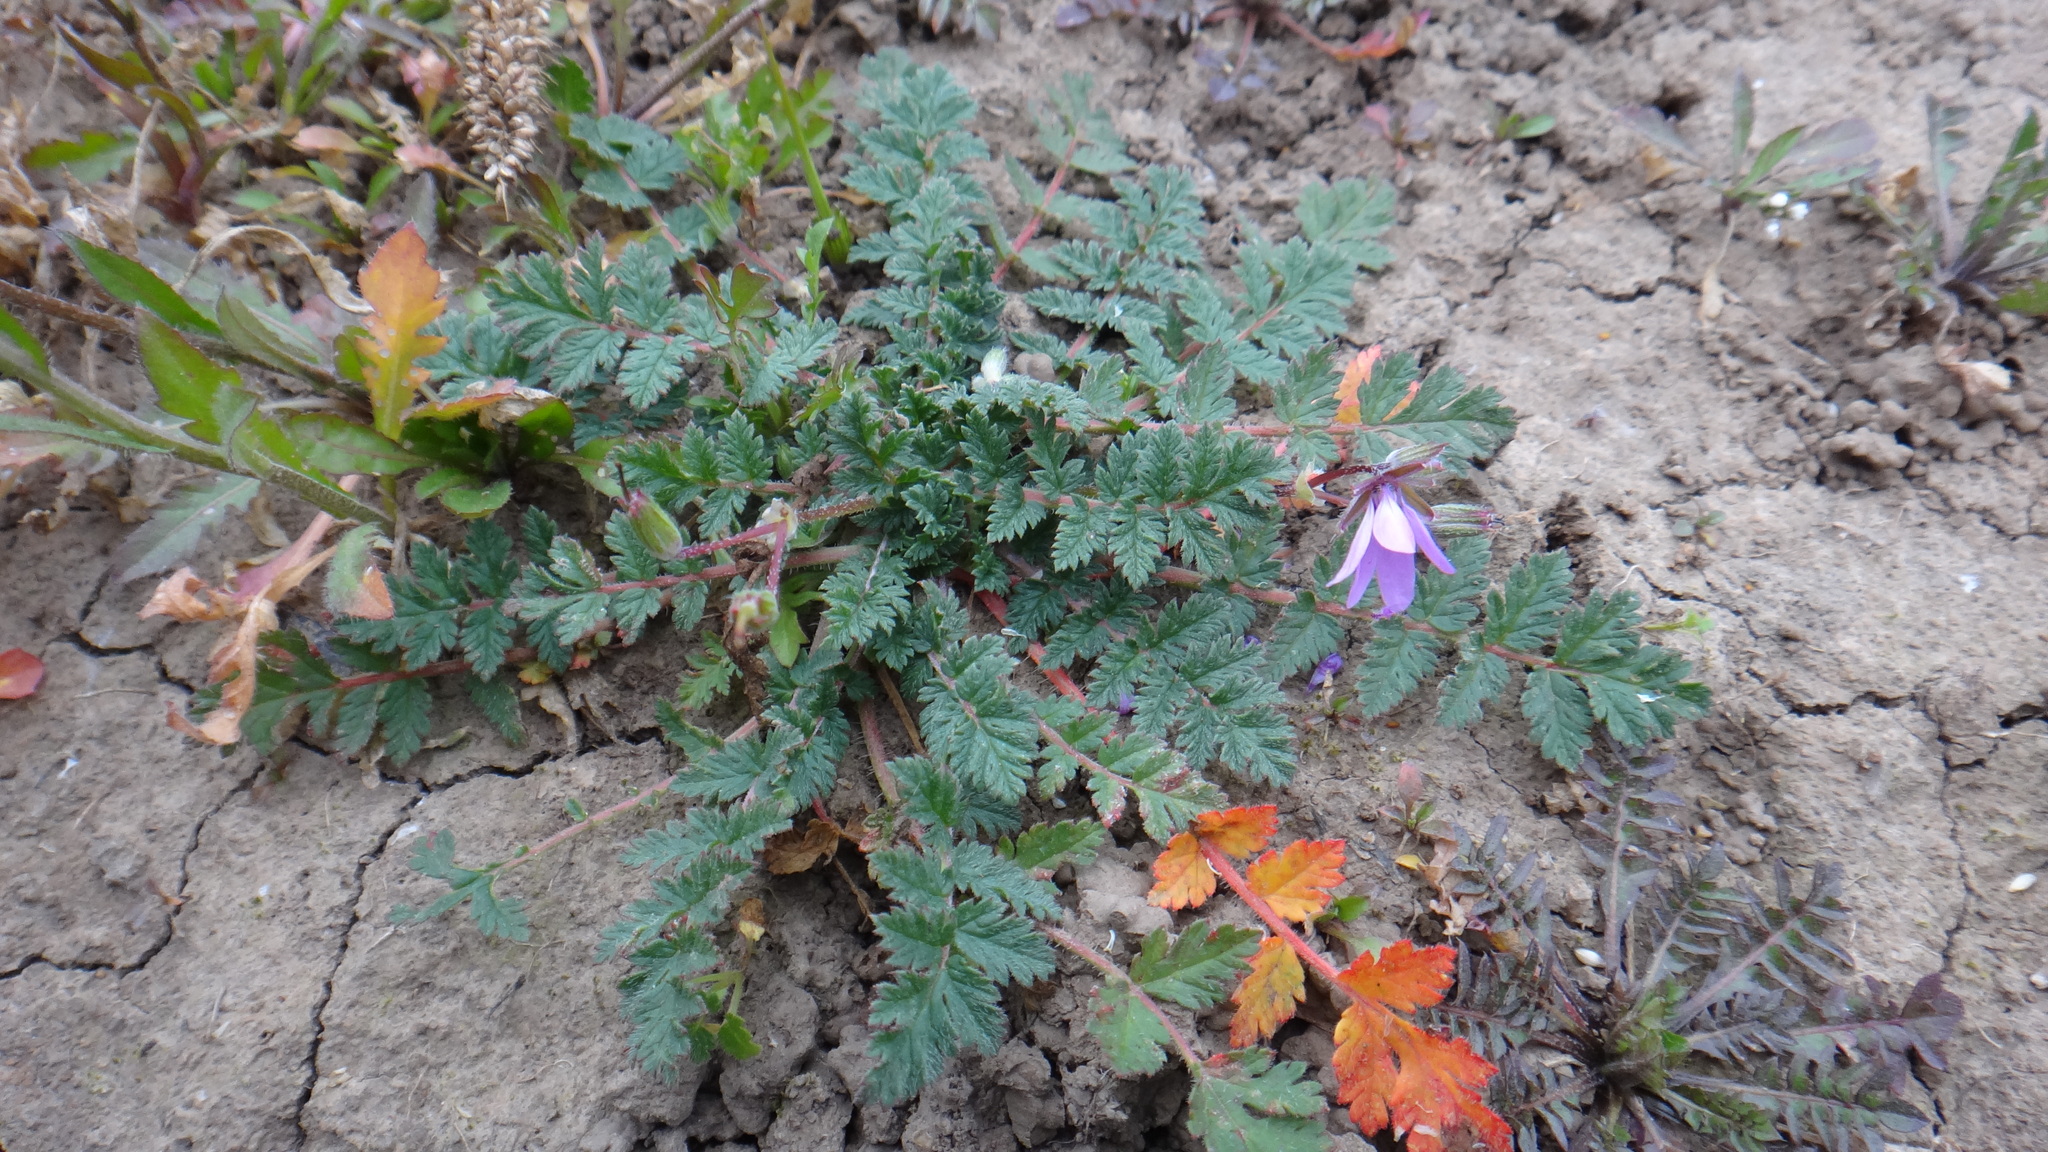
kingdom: Plantae
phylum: Tracheophyta
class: Magnoliopsida
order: Geraniales
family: Geraniaceae
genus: Erodium
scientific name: Erodium cicutarium
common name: Common stork's-bill
